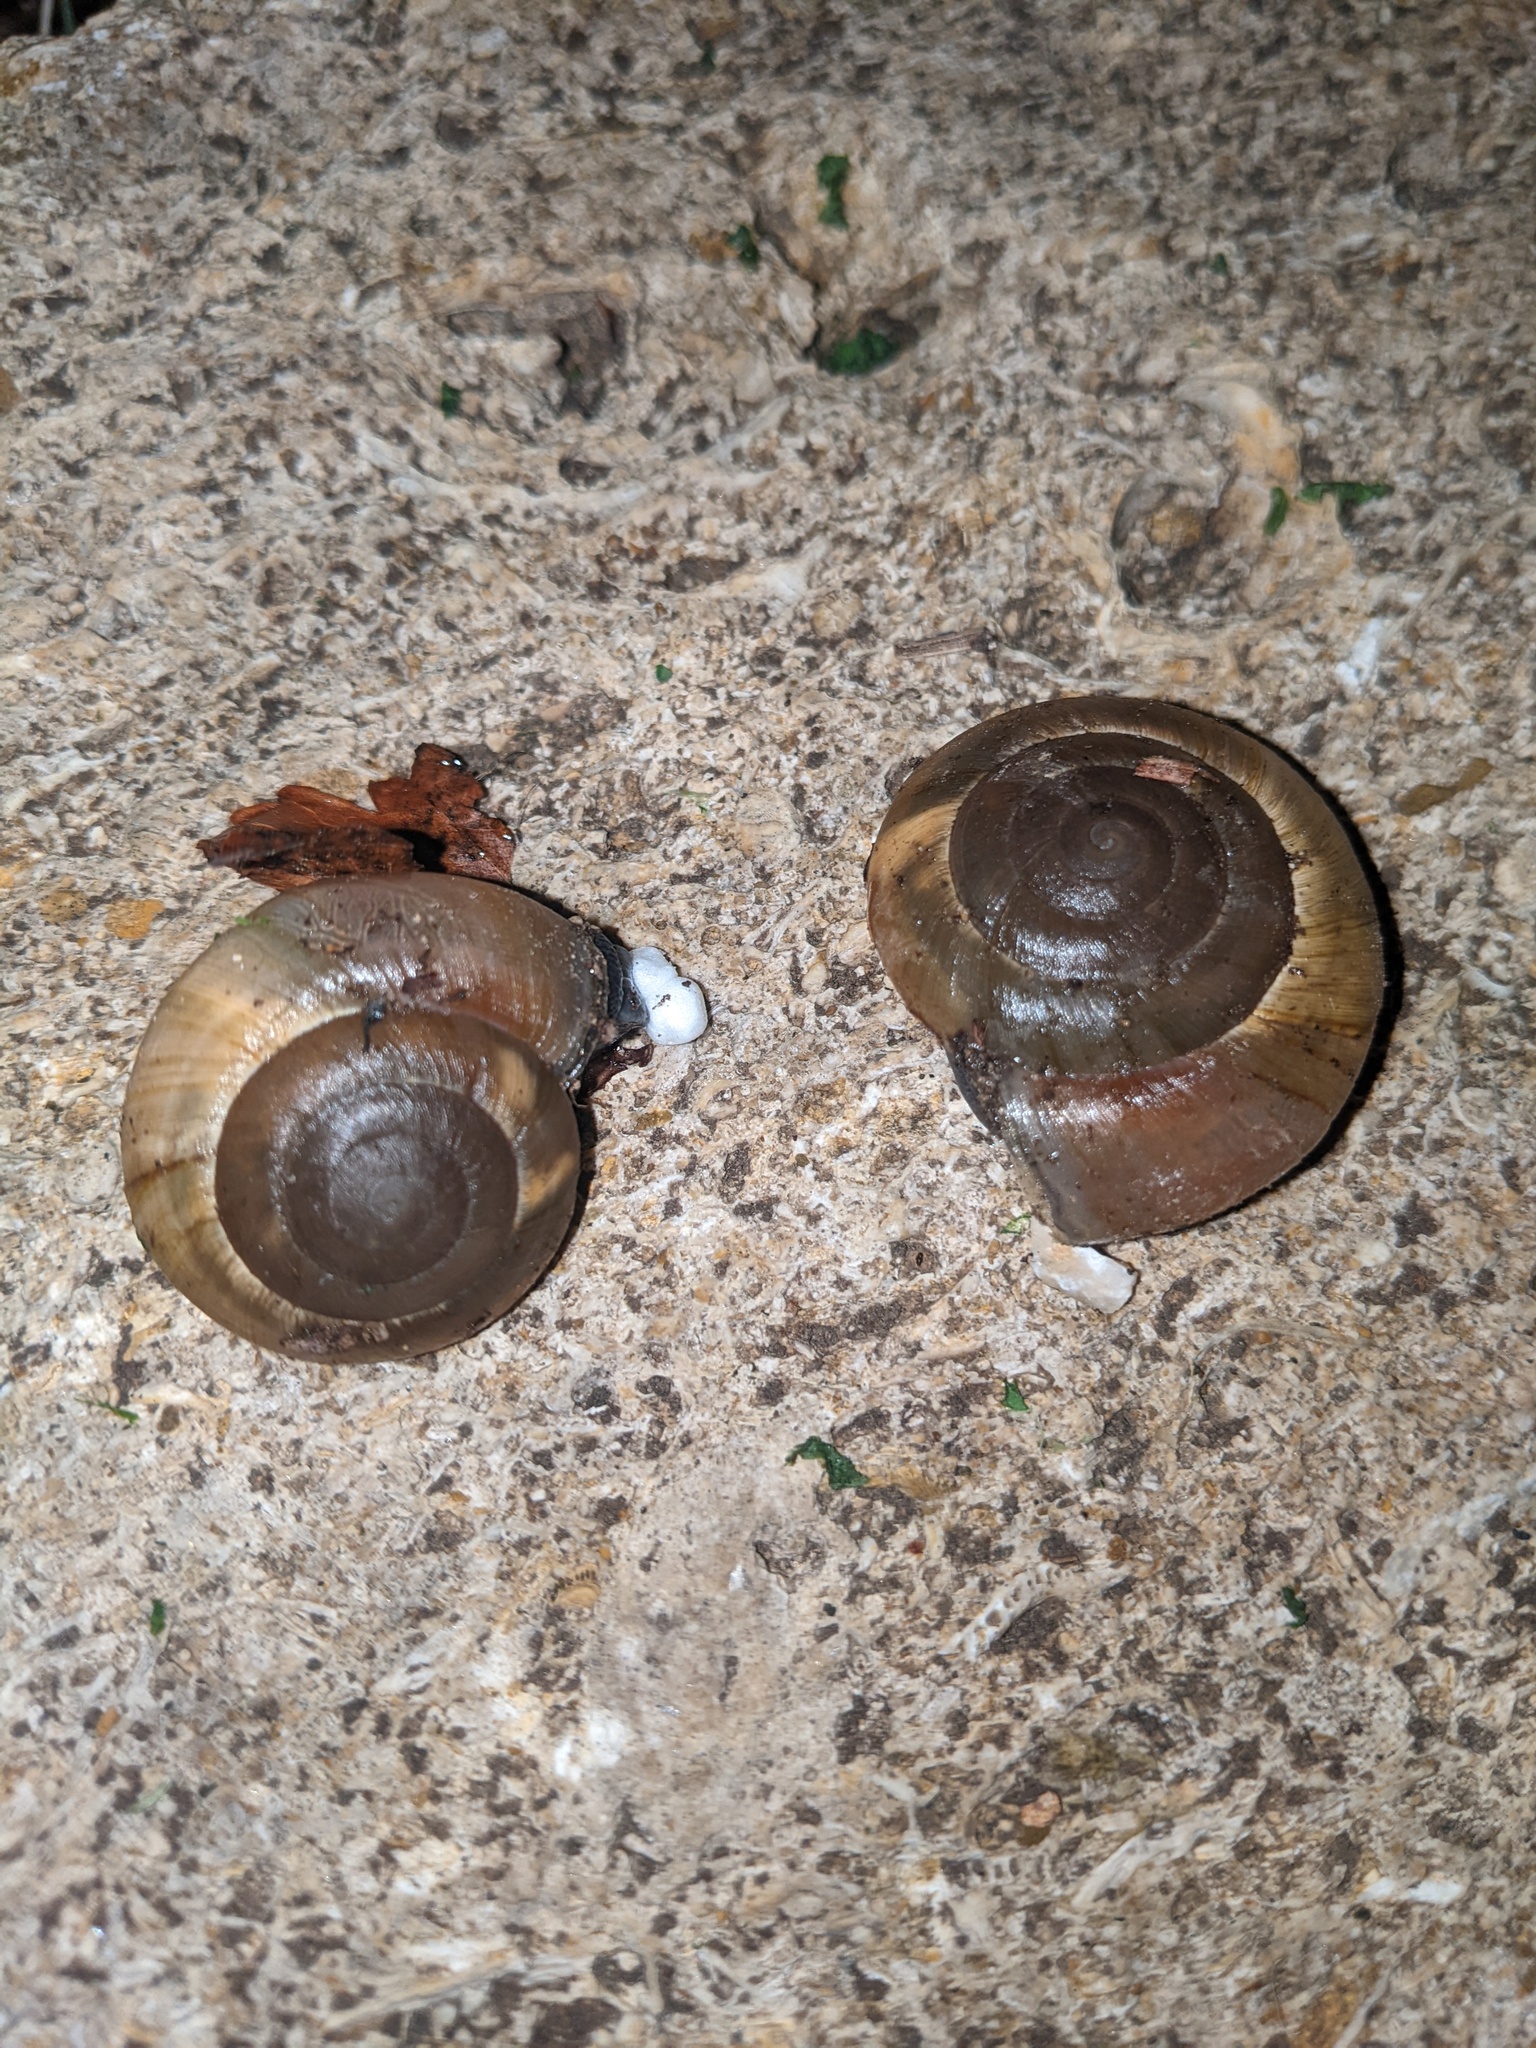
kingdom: Animalia
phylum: Mollusca
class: Gastropoda
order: Stylommatophora
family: Zonitidae
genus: Zonites
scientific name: Zonites algirus
